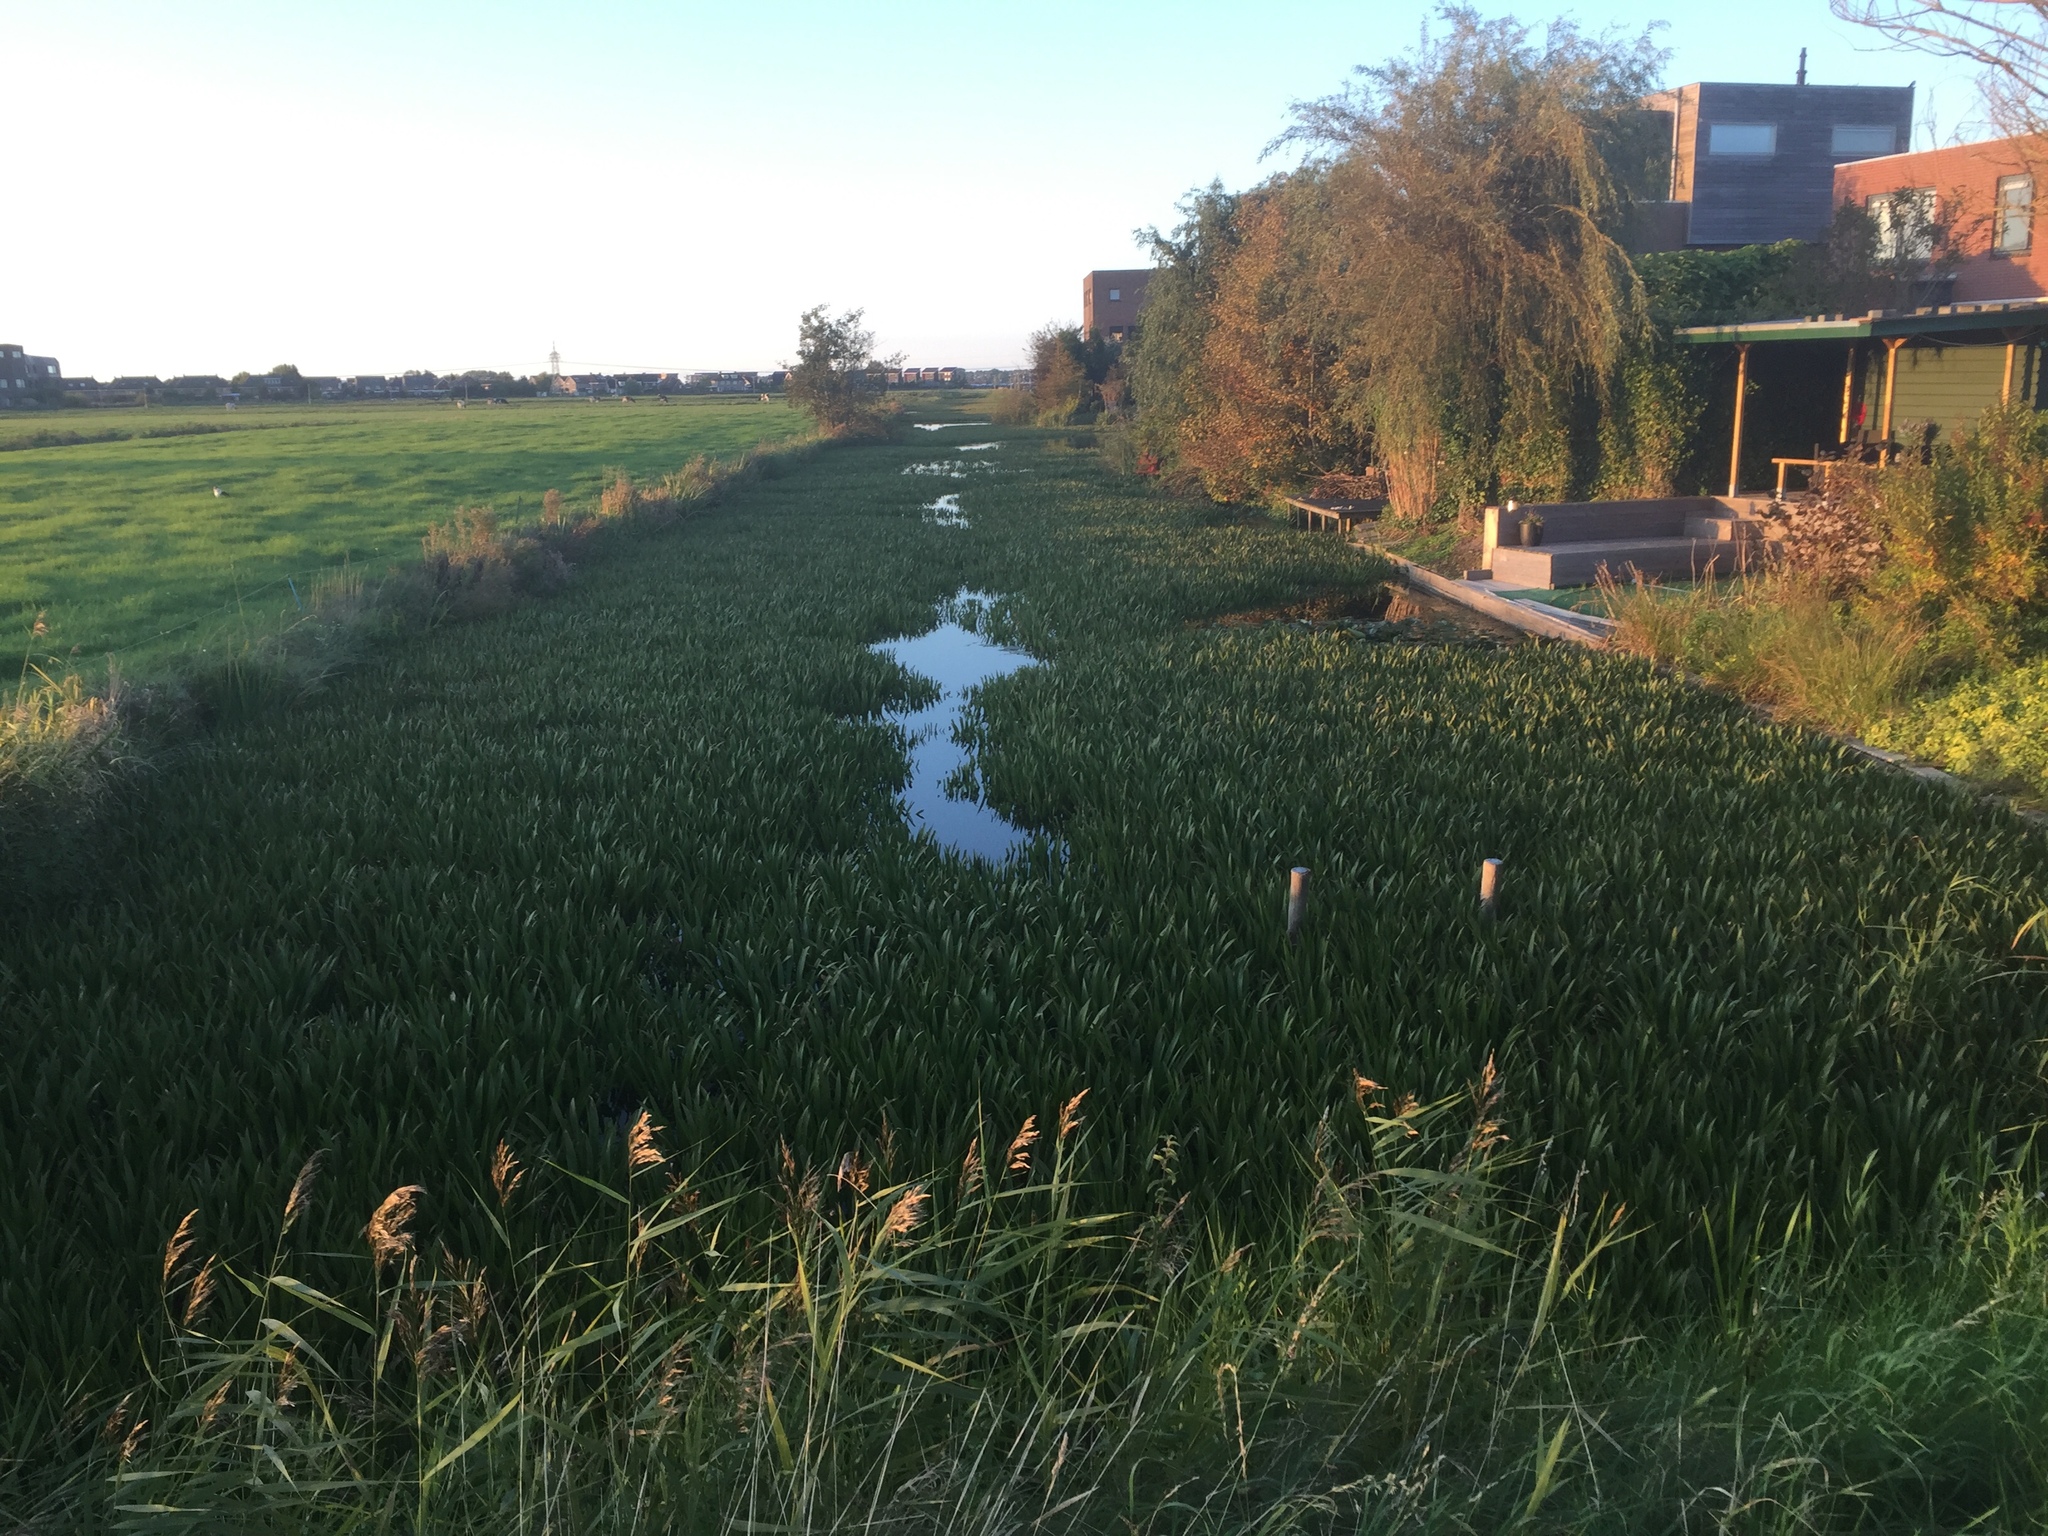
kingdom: Plantae
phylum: Tracheophyta
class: Liliopsida
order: Alismatales
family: Hydrocharitaceae
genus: Stratiotes
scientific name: Stratiotes aloides
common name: Water-soldier
